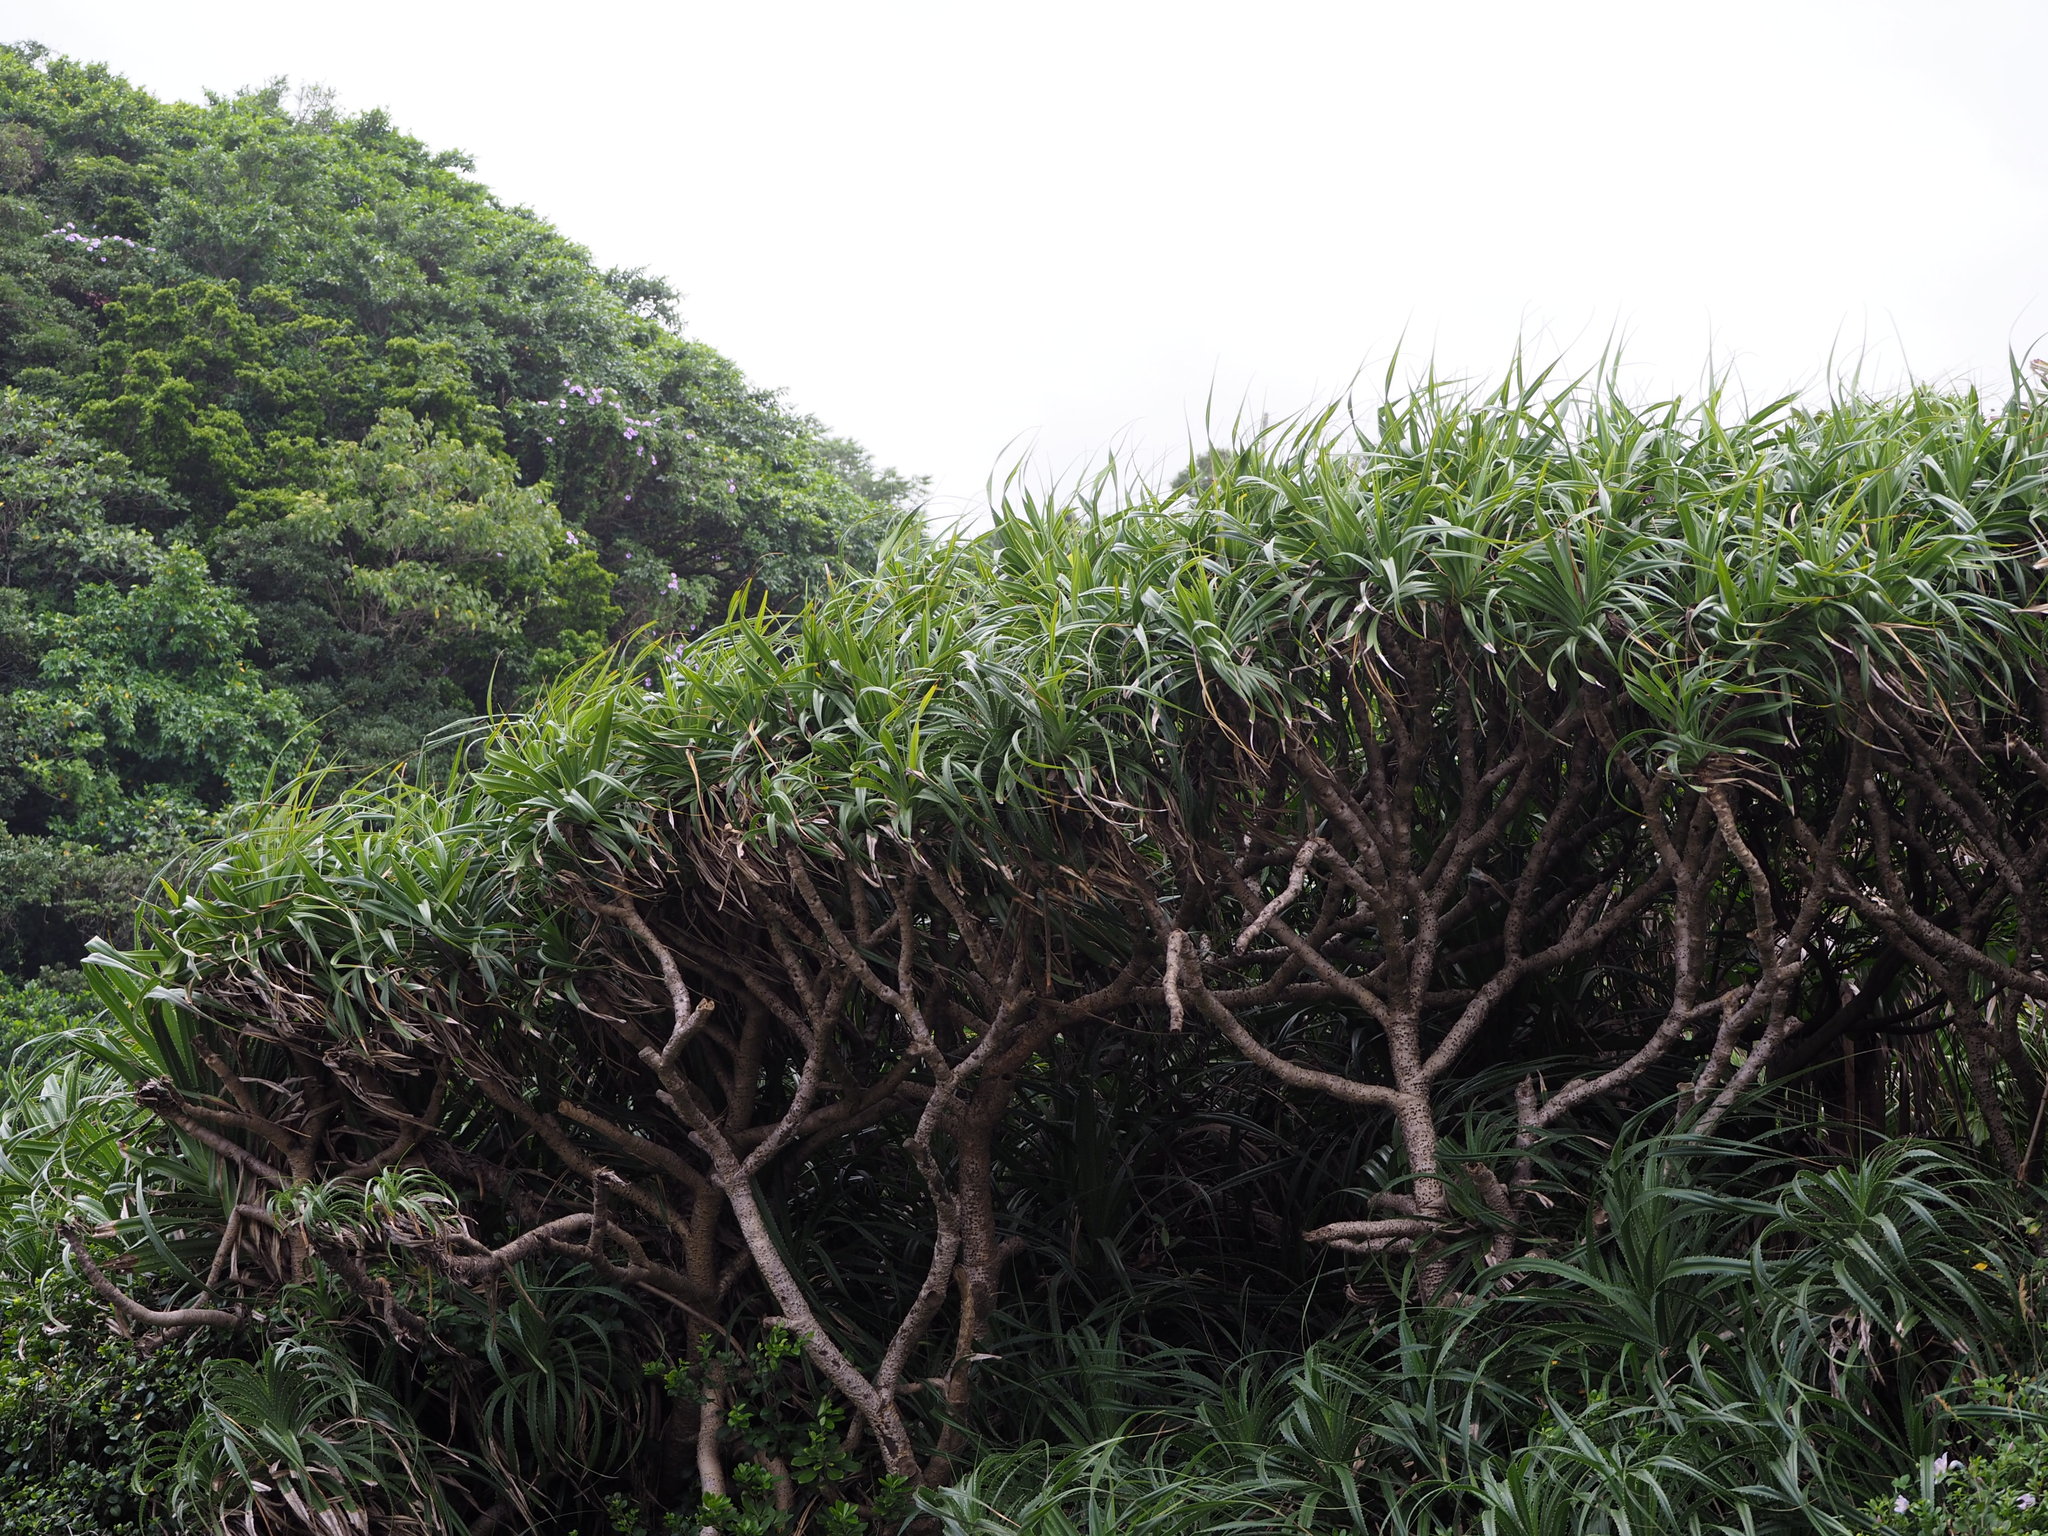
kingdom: Plantae
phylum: Tracheophyta
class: Liliopsida
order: Pandanales
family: Pandanaceae
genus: Pandanus
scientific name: Pandanus odorifer
